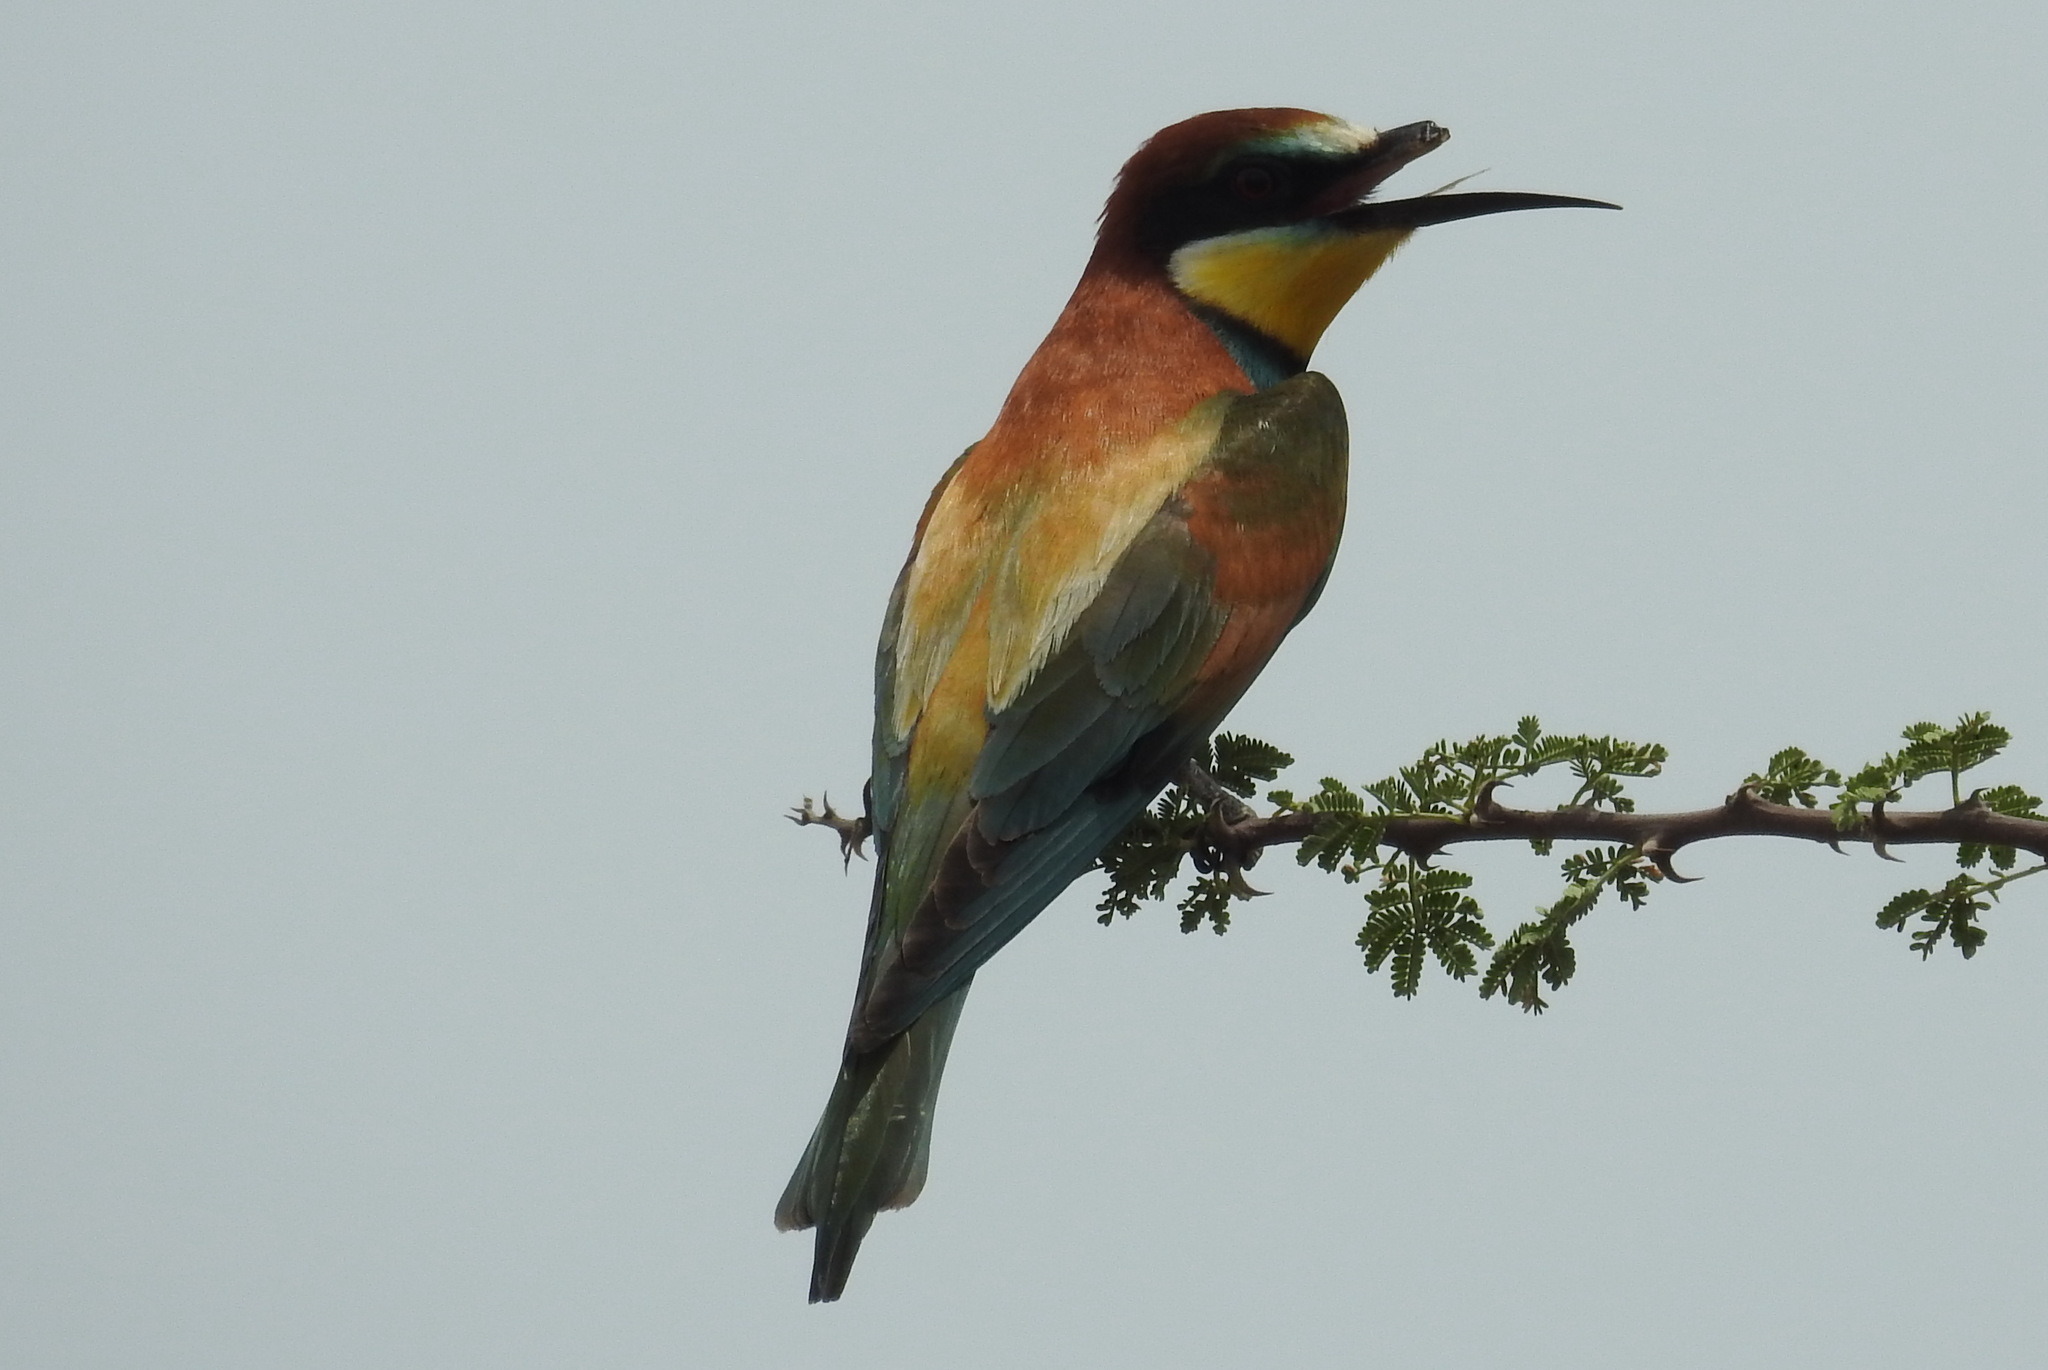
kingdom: Animalia
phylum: Chordata
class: Aves
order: Coraciiformes
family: Meropidae
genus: Merops
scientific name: Merops apiaster
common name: European bee-eater
